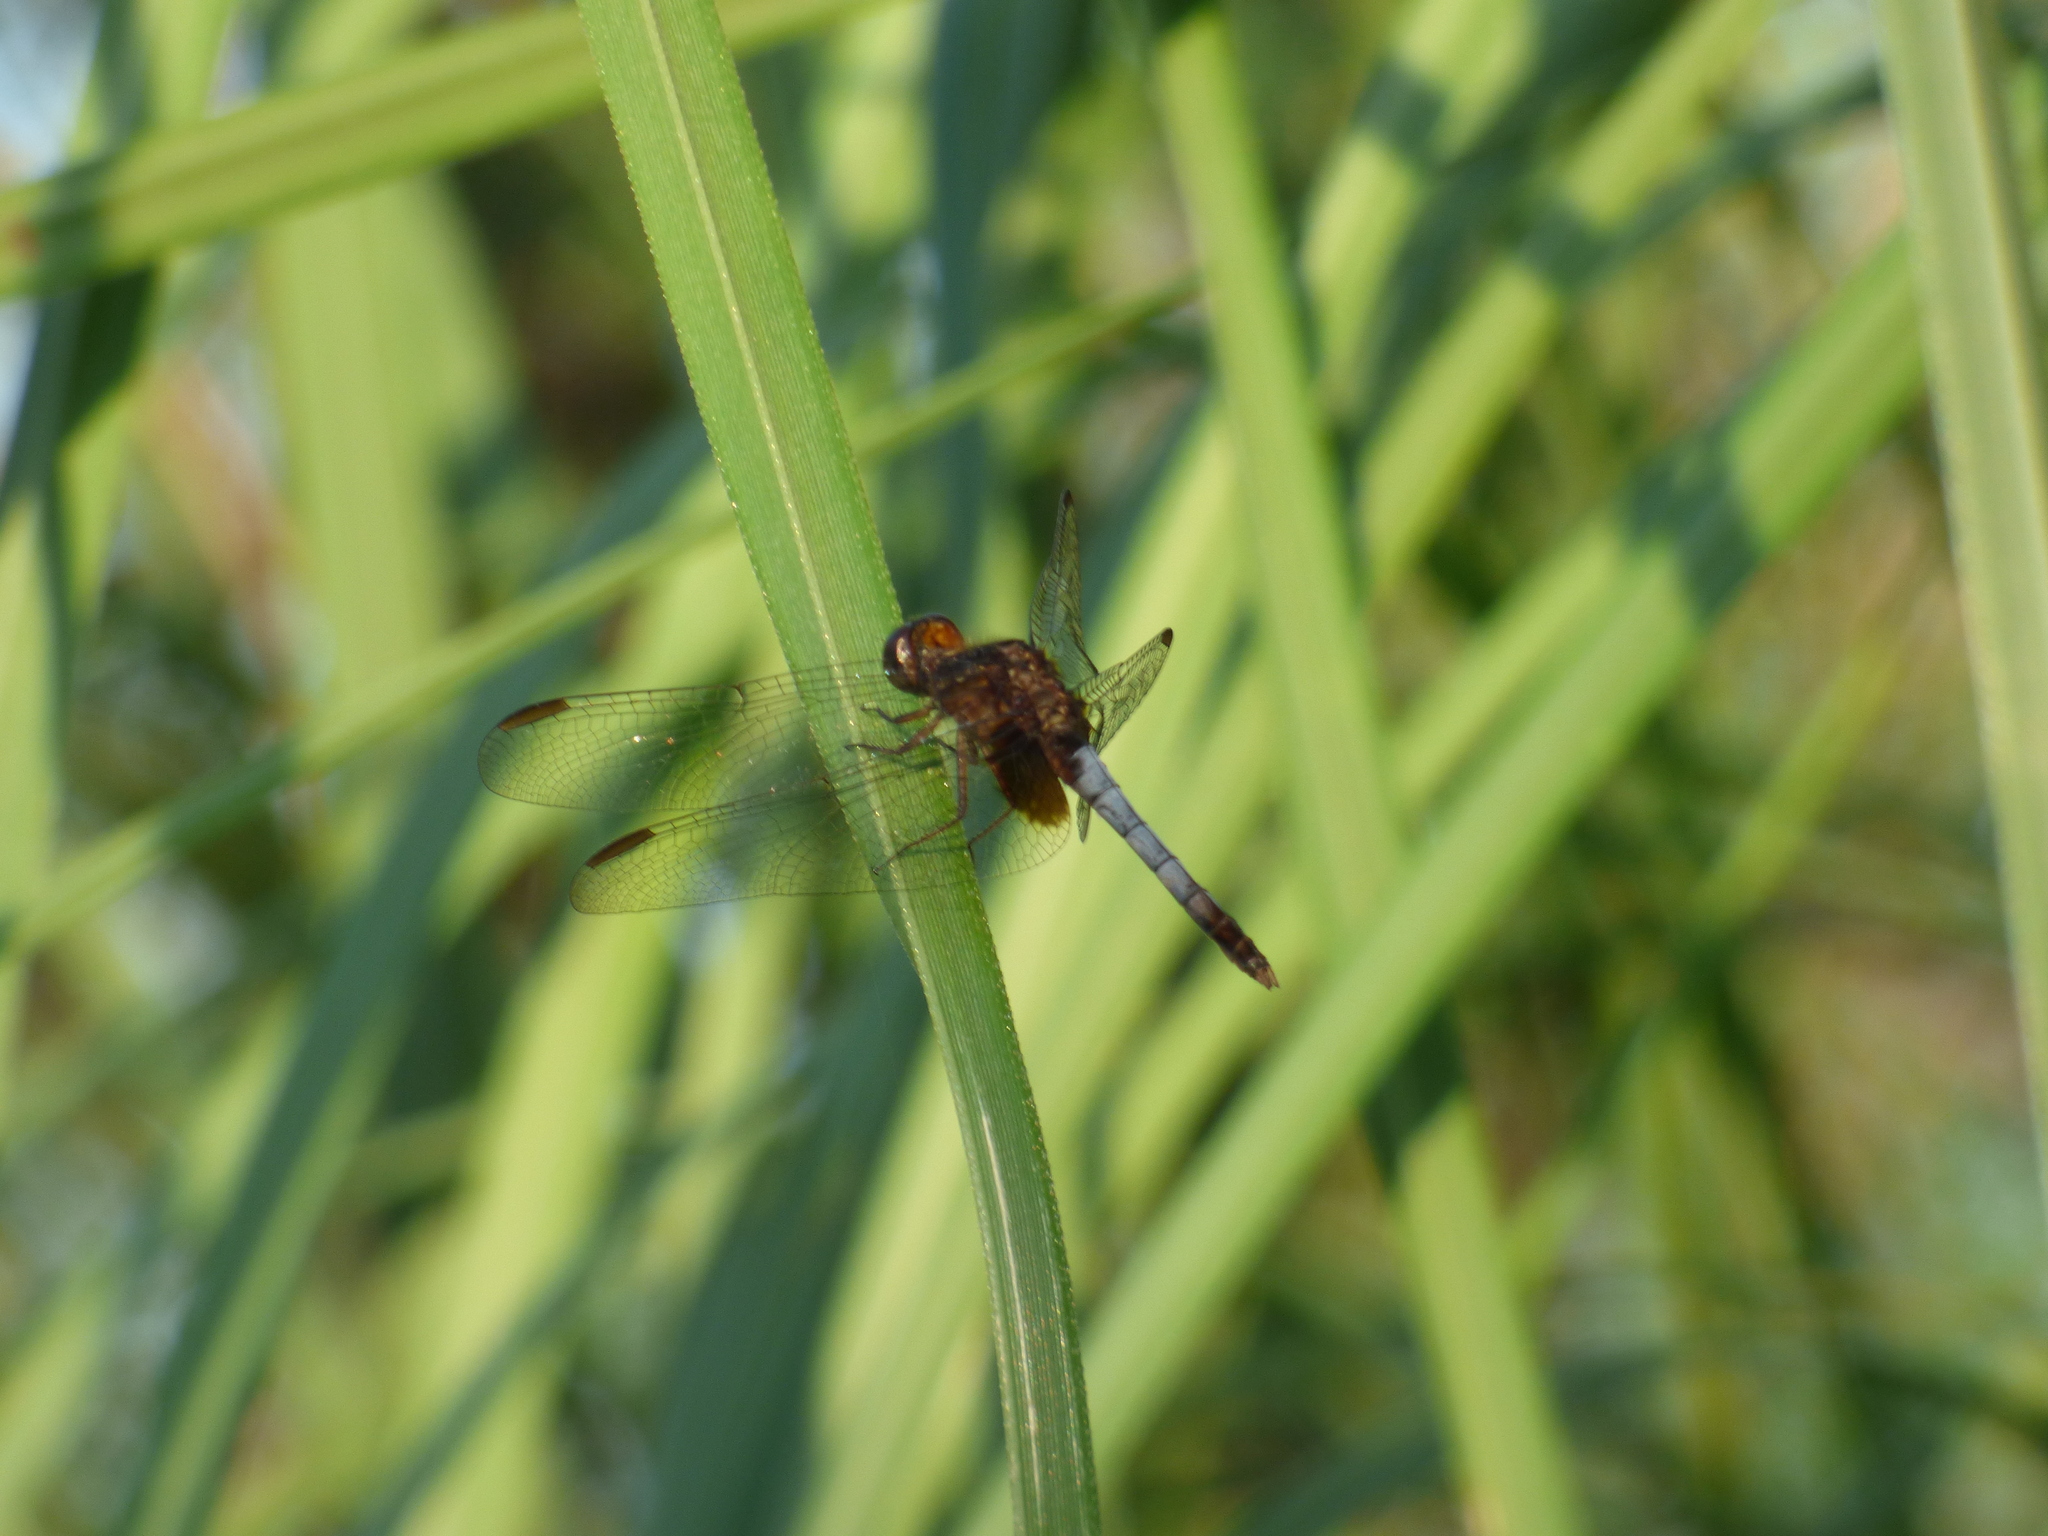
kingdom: Animalia
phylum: Arthropoda
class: Insecta
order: Odonata
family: Libellulidae
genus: Erythrodiplax
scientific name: Erythrodiplax media
